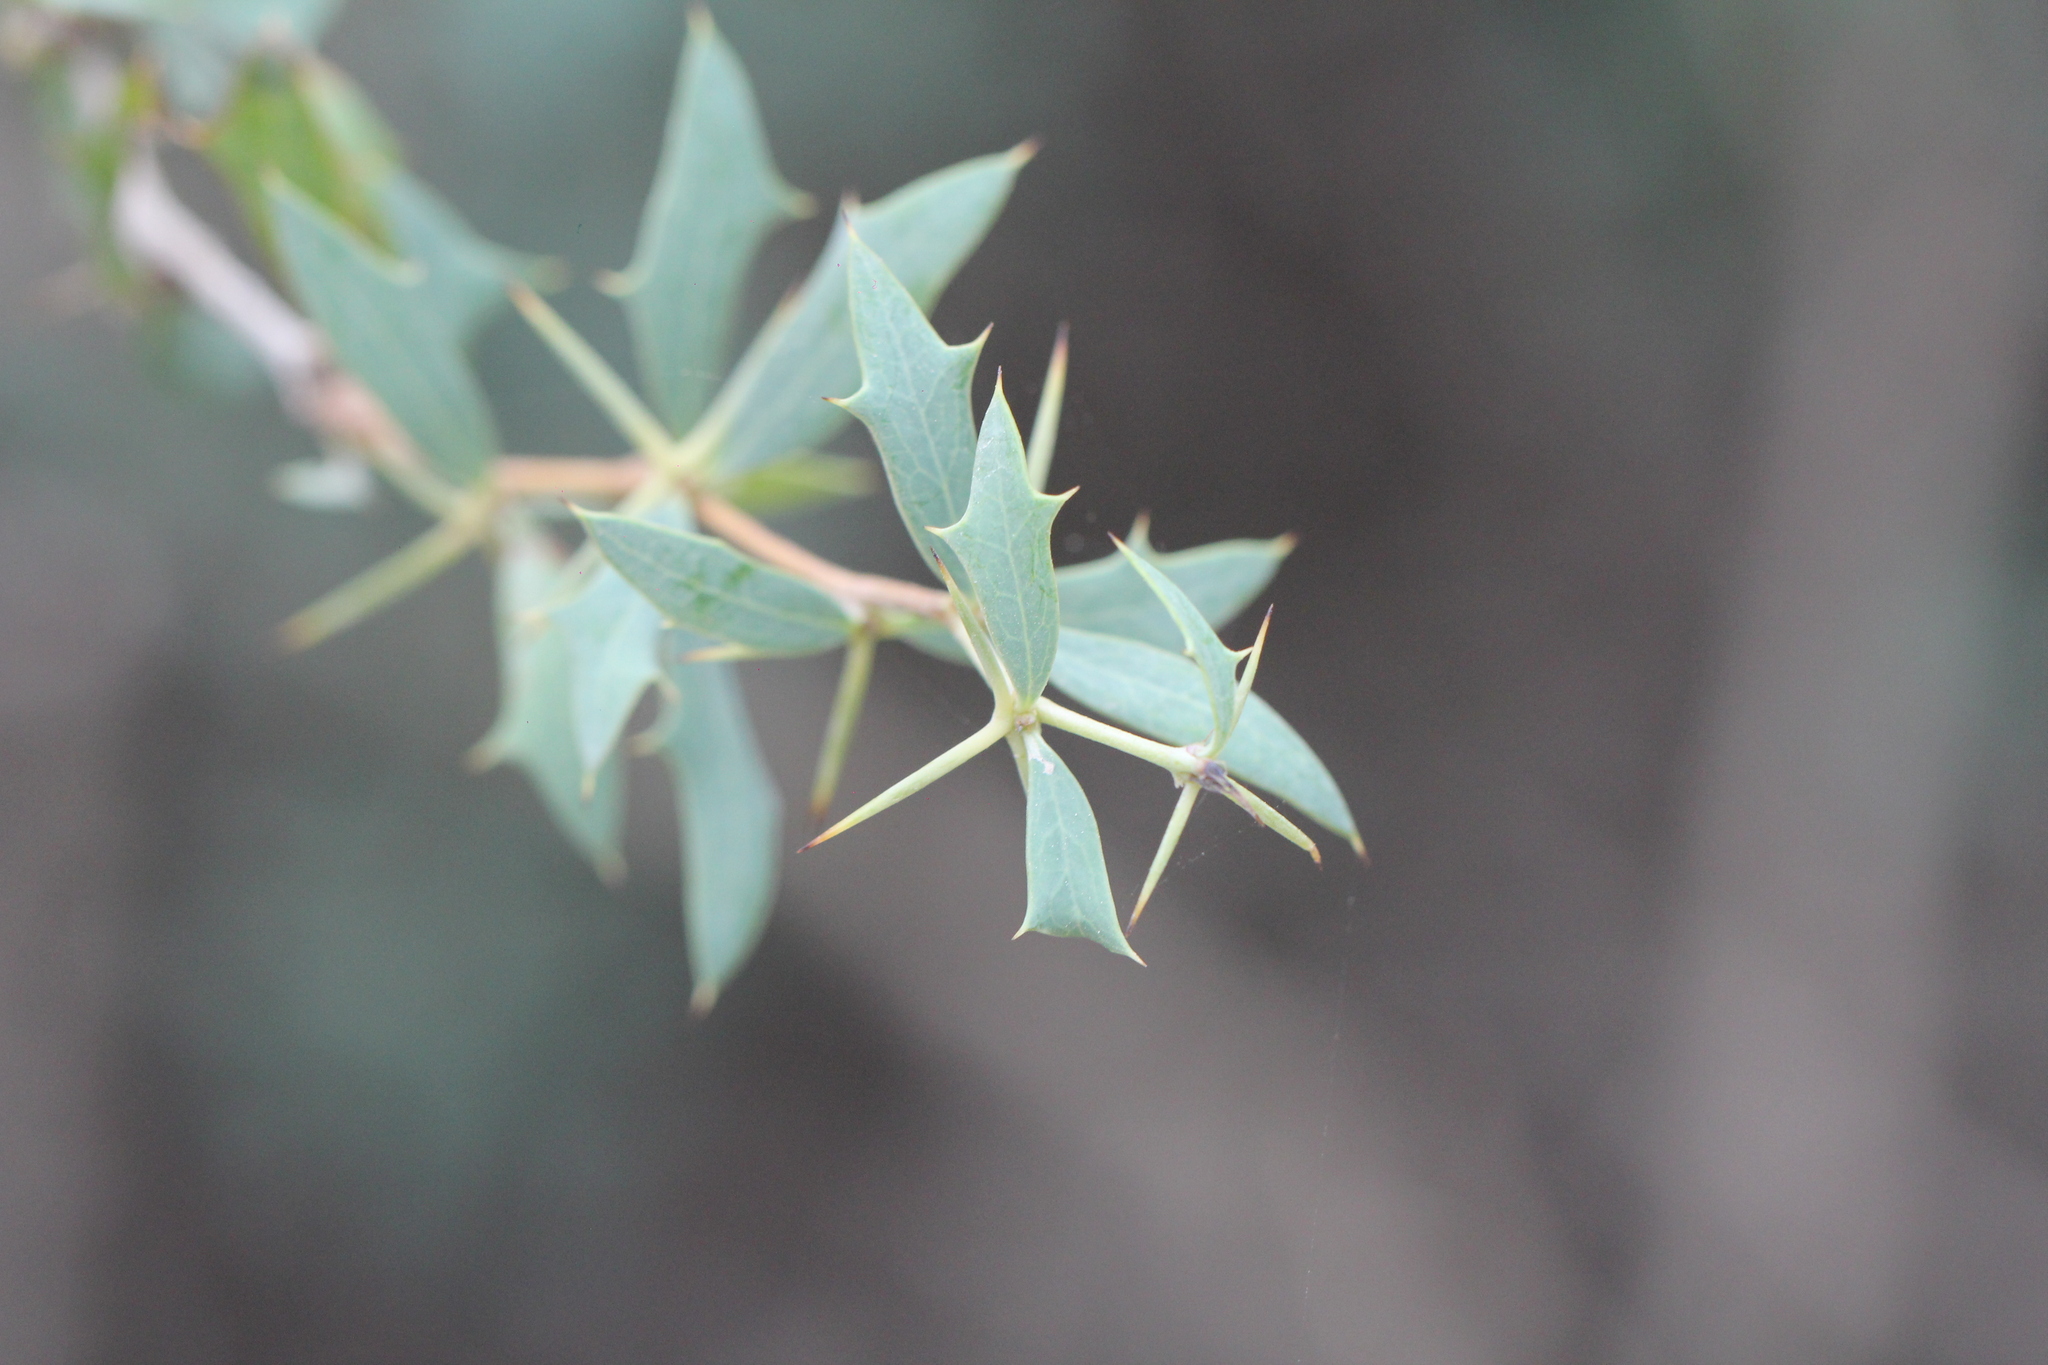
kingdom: Plantae
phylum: Tracheophyta
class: Magnoliopsida
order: Ranunculales
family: Berberidaceae
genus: Berberis
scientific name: Berberis ruscifolia
